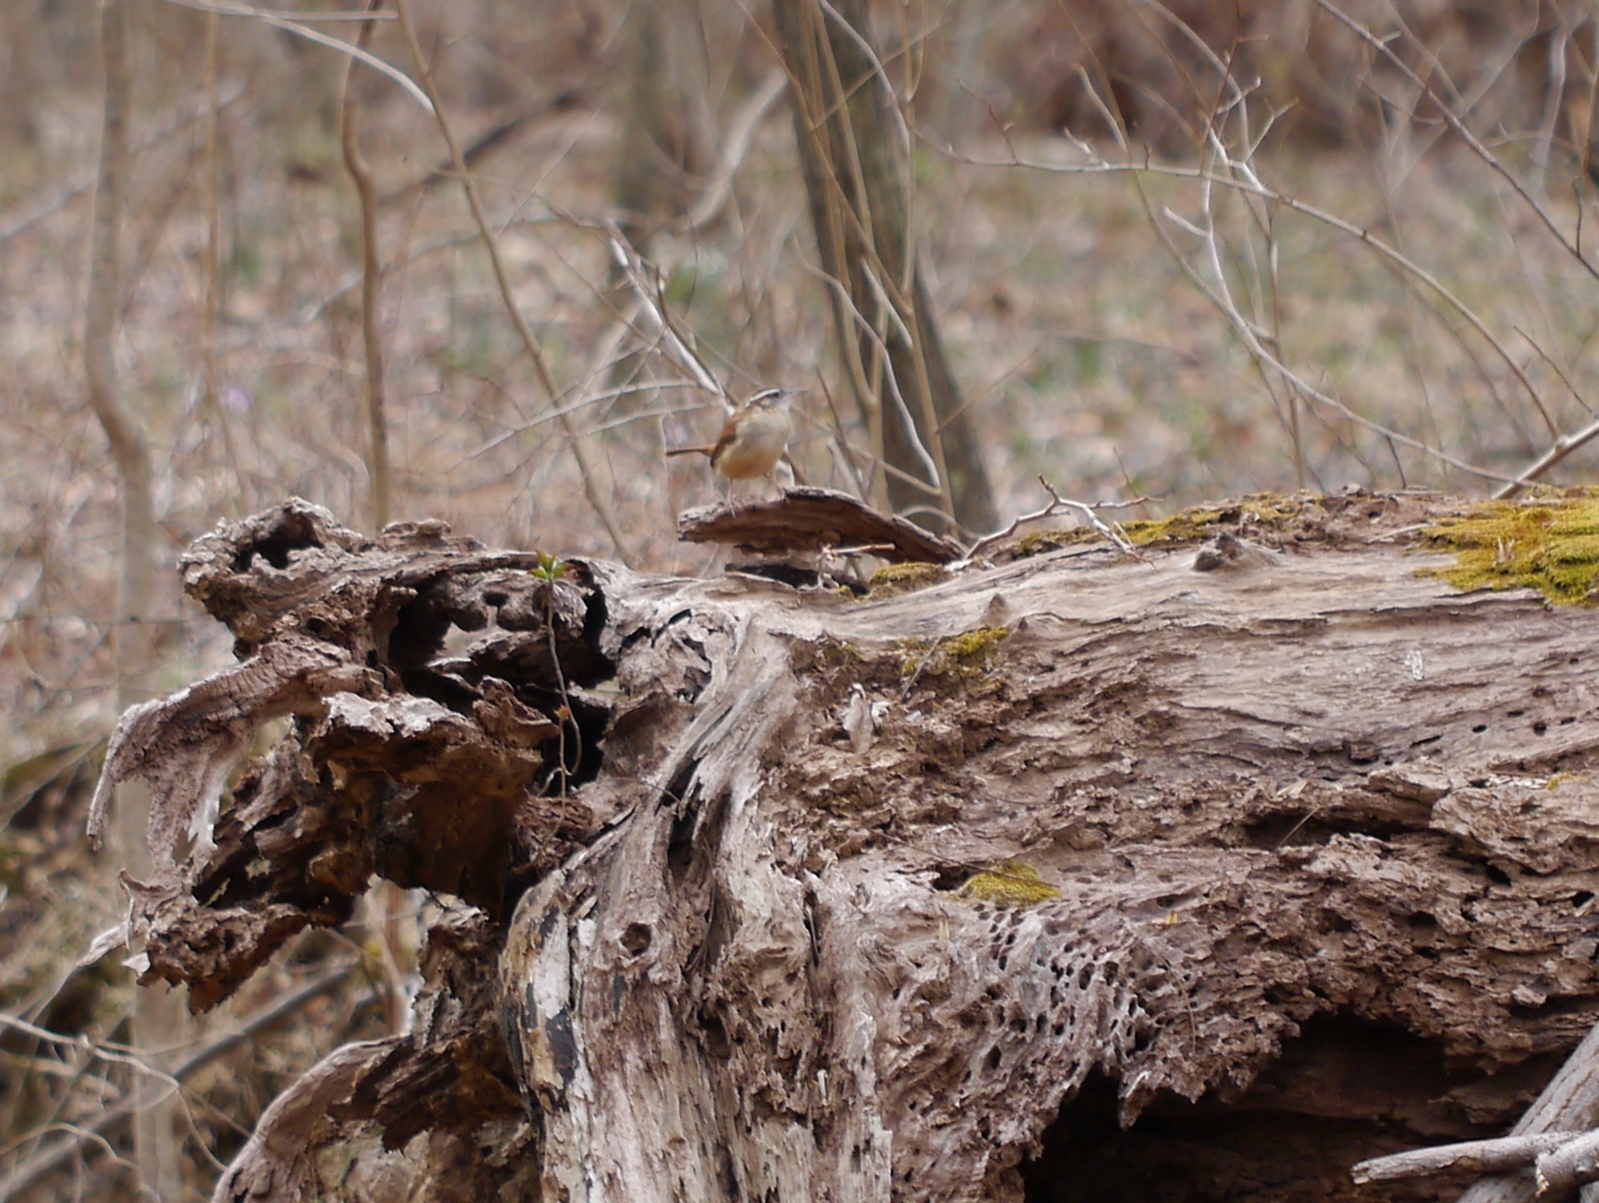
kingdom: Animalia
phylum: Chordata
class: Aves
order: Passeriformes
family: Troglodytidae
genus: Thryothorus
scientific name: Thryothorus ludovicianus
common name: Carolina wren
